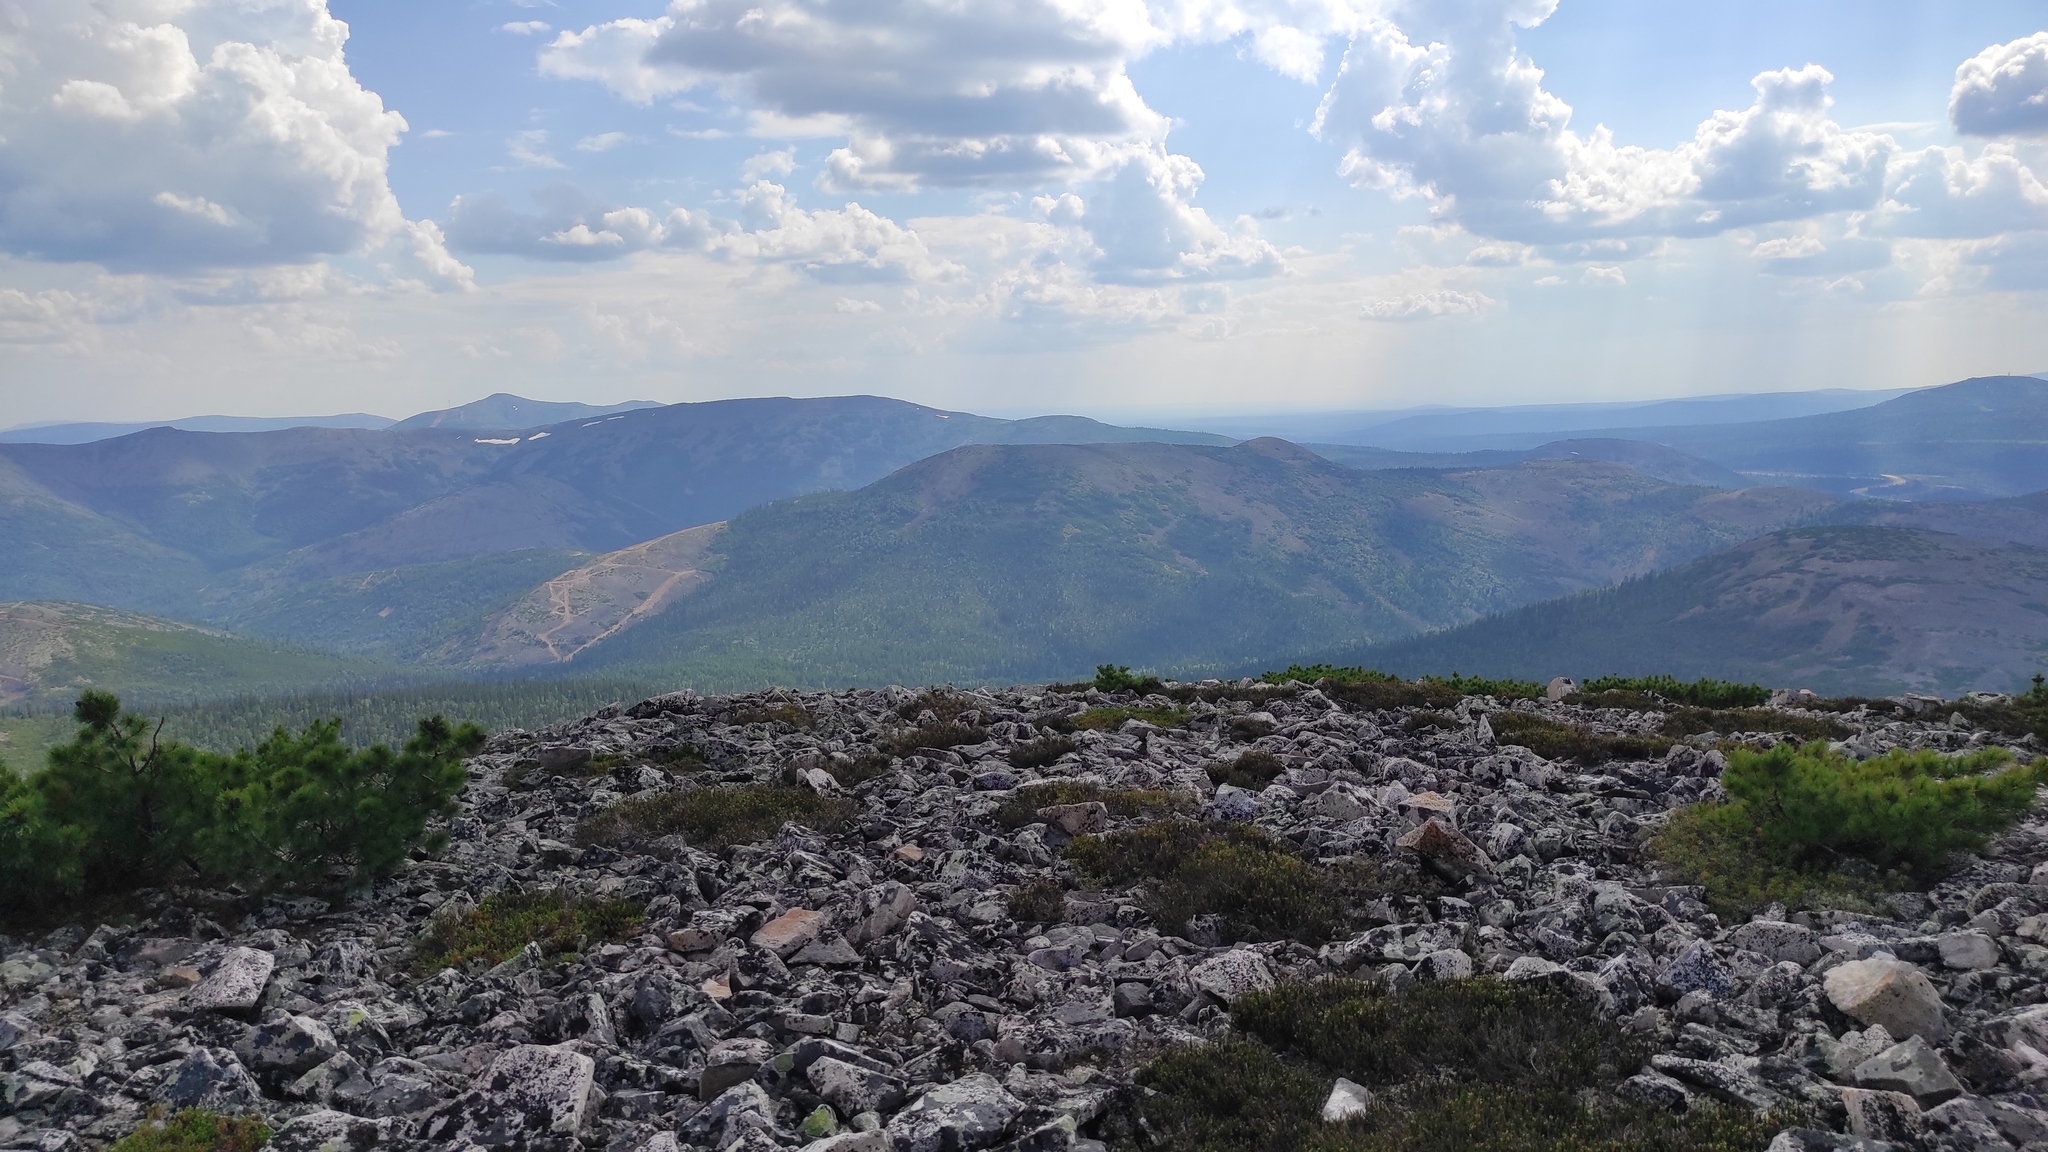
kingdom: Plantae
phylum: Tracheophyta
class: Pinopsida
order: Pinales
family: Pinaceae
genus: Pinus
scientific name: Pinus pumila
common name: Dwarf siberian pine
